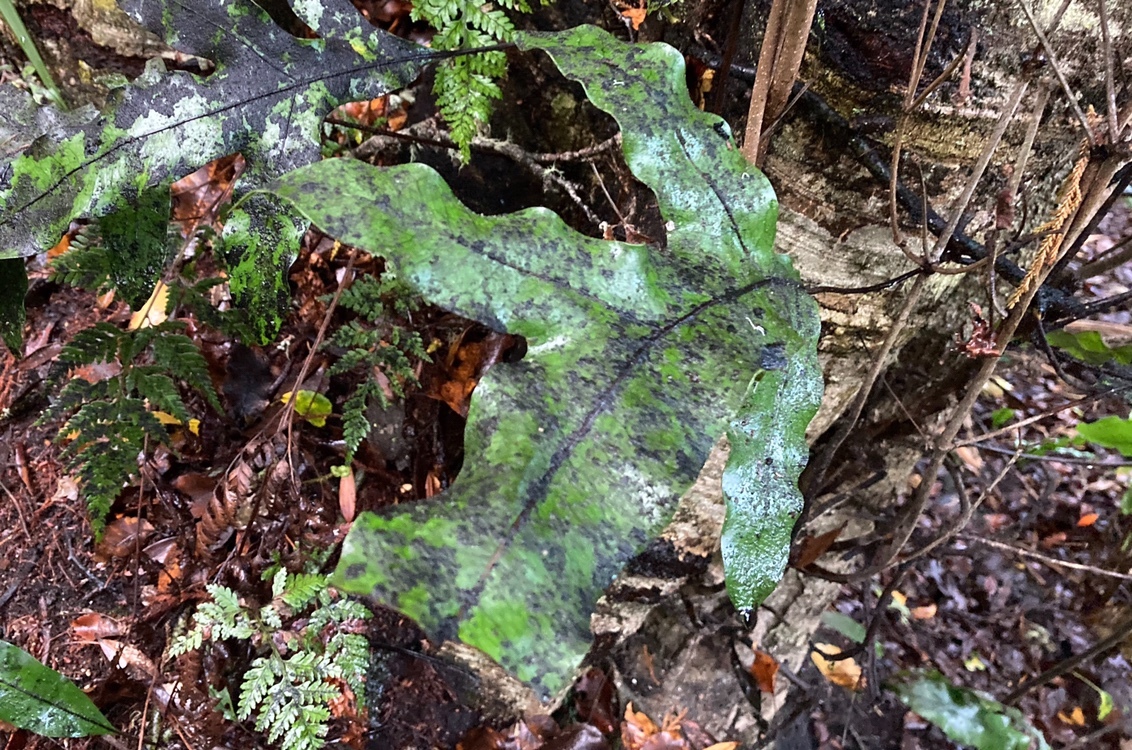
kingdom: Plantae
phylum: Tracheophyta
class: Polypodiopsida
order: Polypodiales
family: Polypodiaceae
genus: Lecanopteris
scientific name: Lecanopteris pustulata
